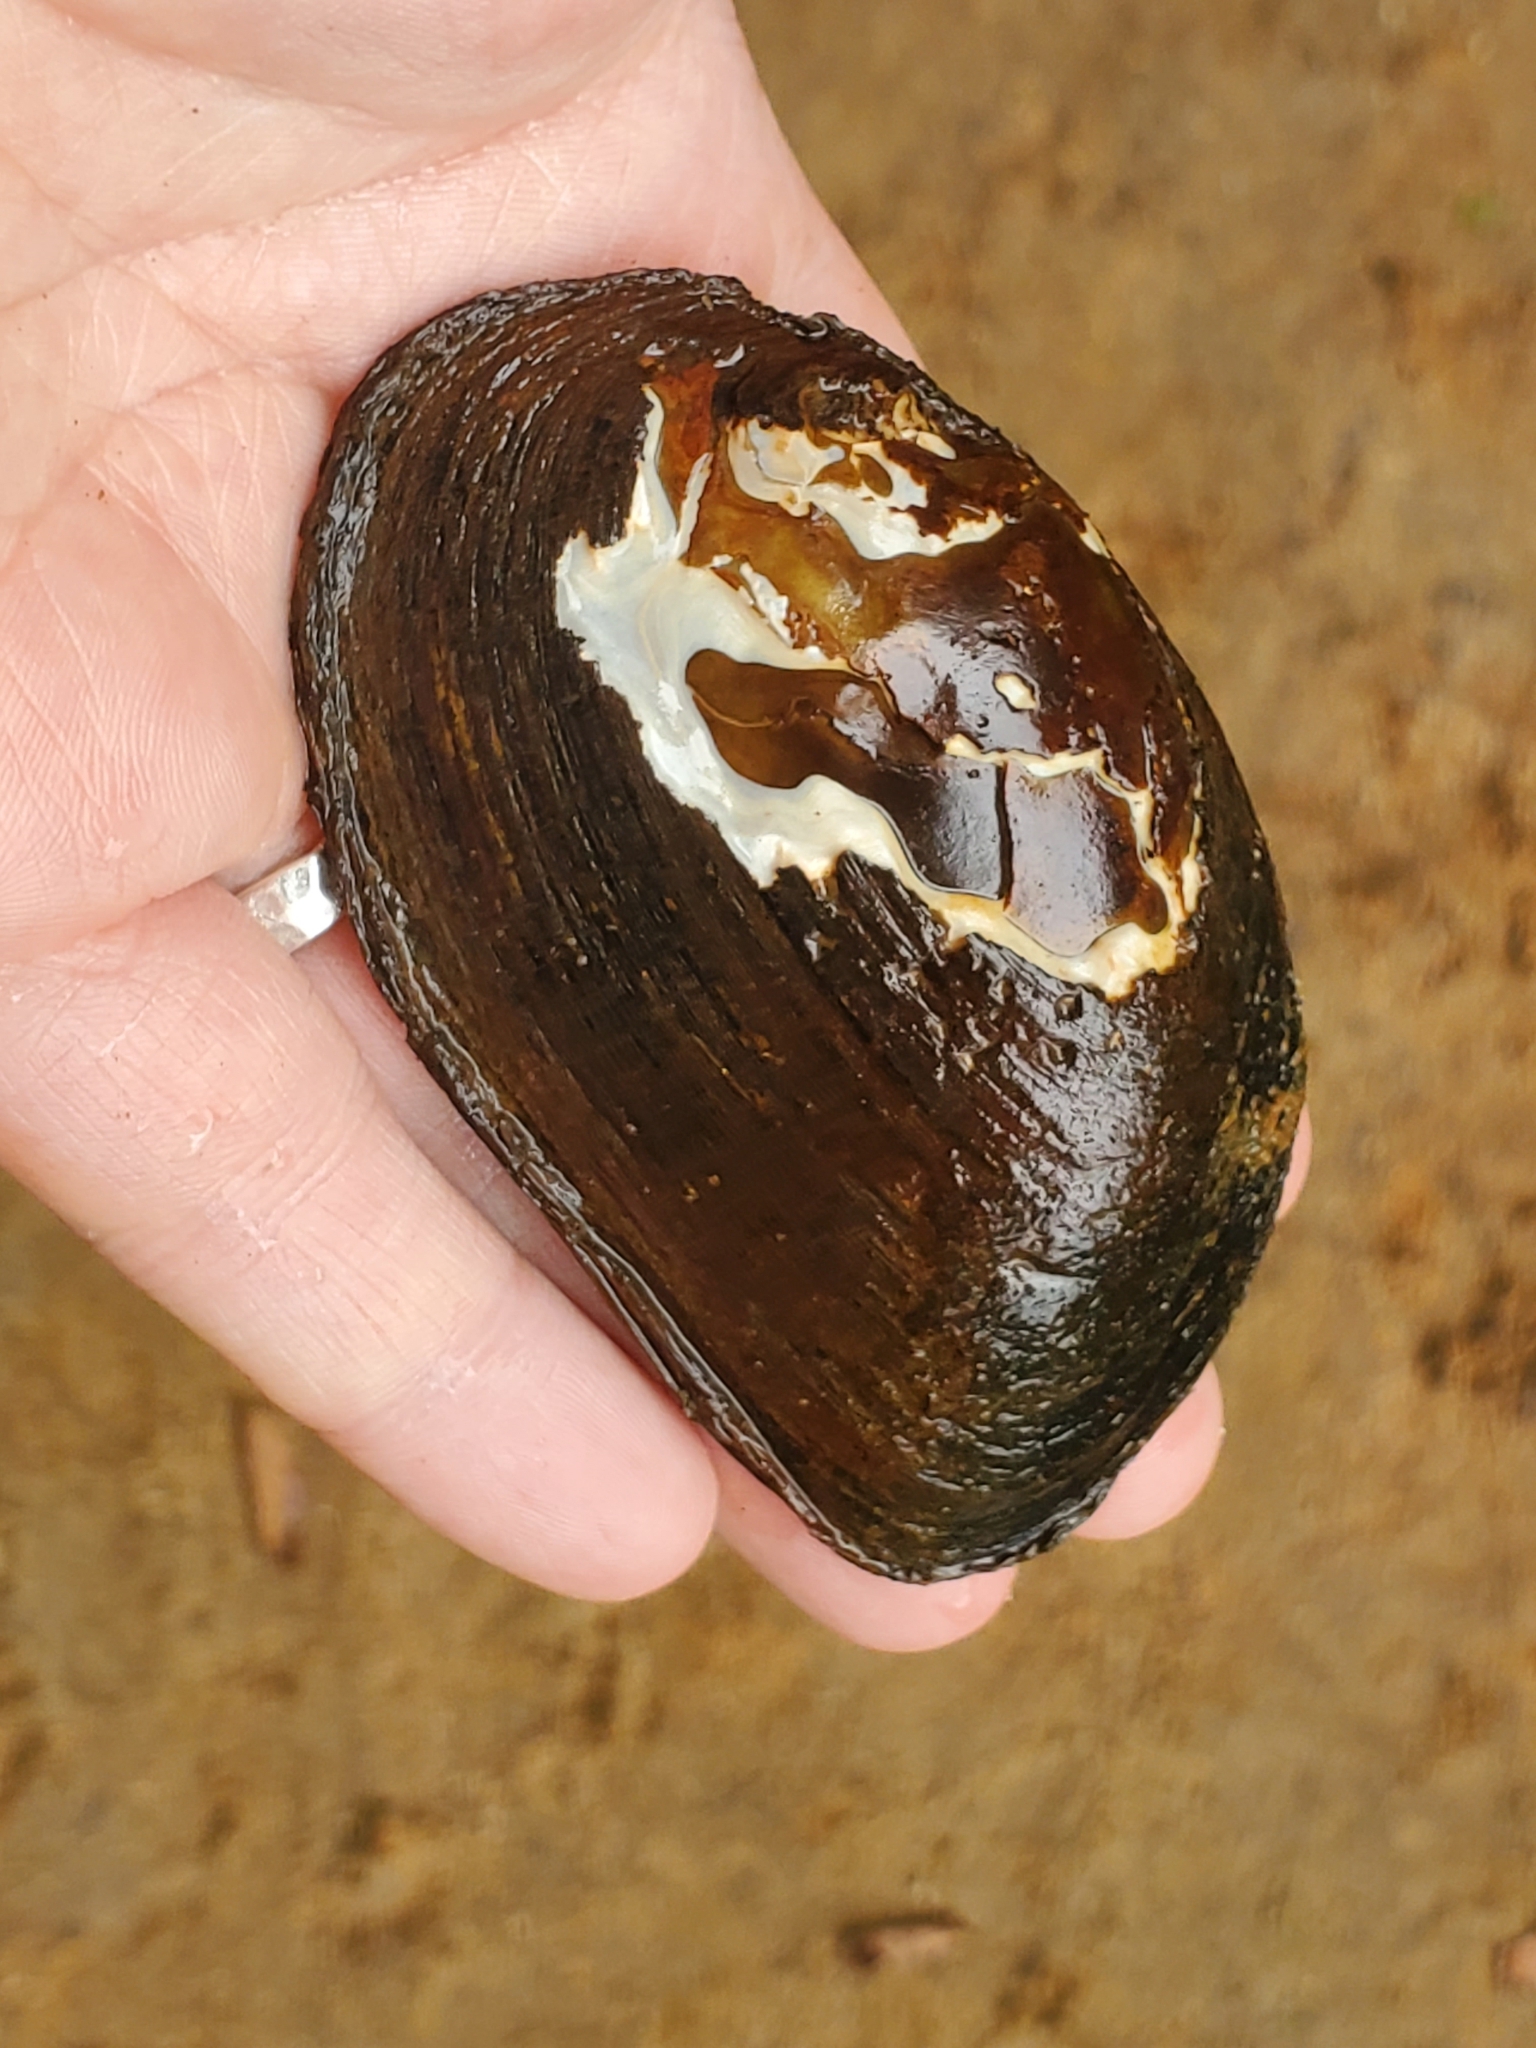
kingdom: Animalia
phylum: Mollusca
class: Bivalvia
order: Unionida
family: Unionidae
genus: Elliptio
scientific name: Elliptio complanata
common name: Eastern elliptio
